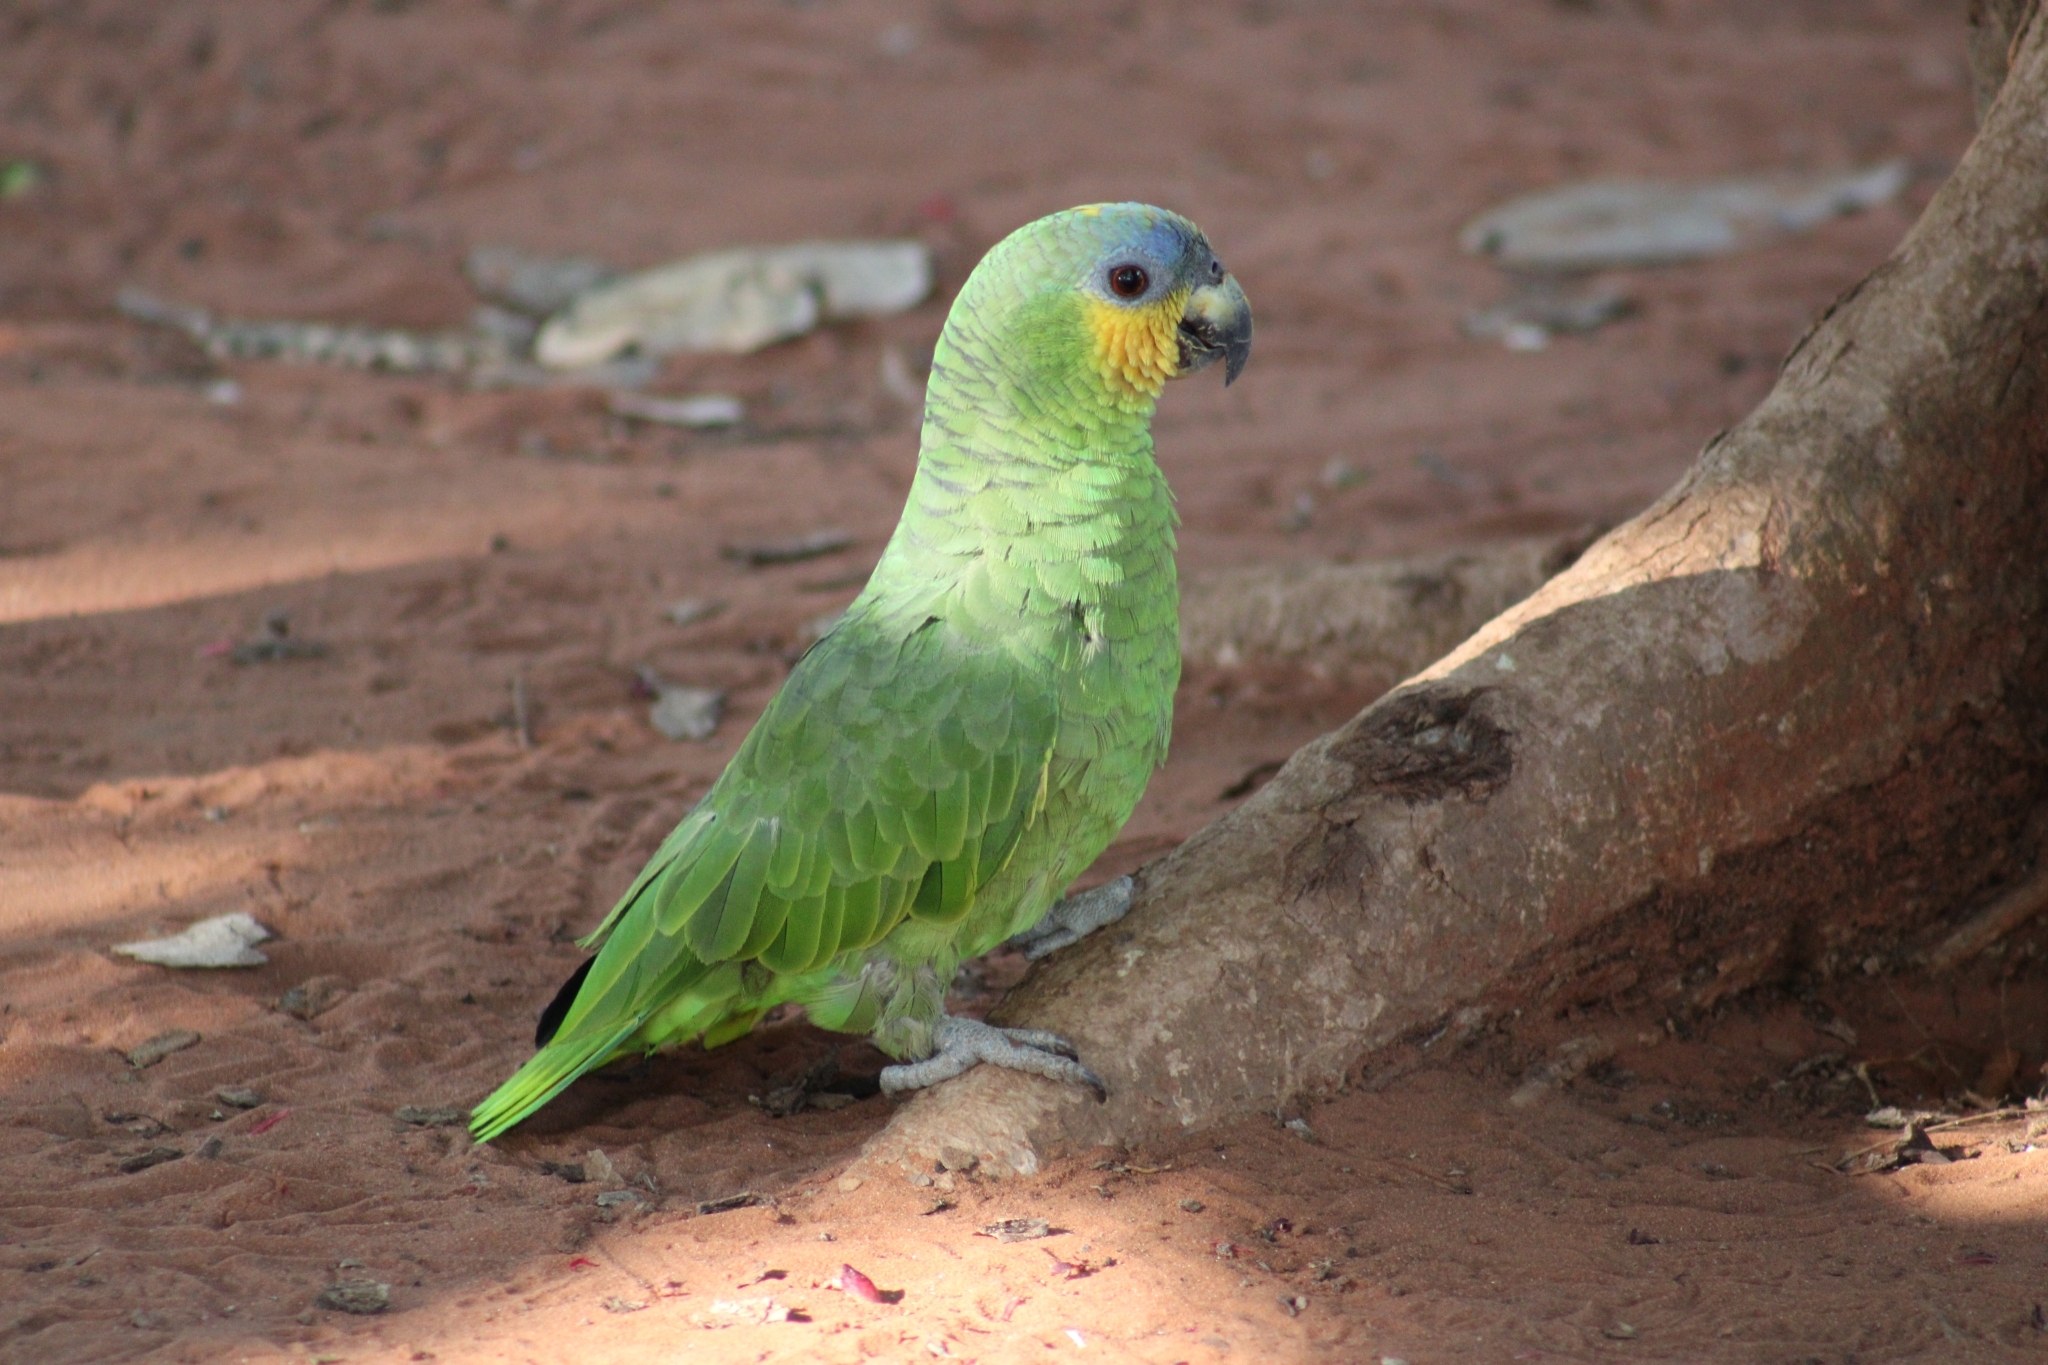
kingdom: Animalia
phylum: Chordata
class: Aves
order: Psittaciformes
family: Psittacidae
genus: Amazona
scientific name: Amazona amazonica
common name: Orange-winged amazon
